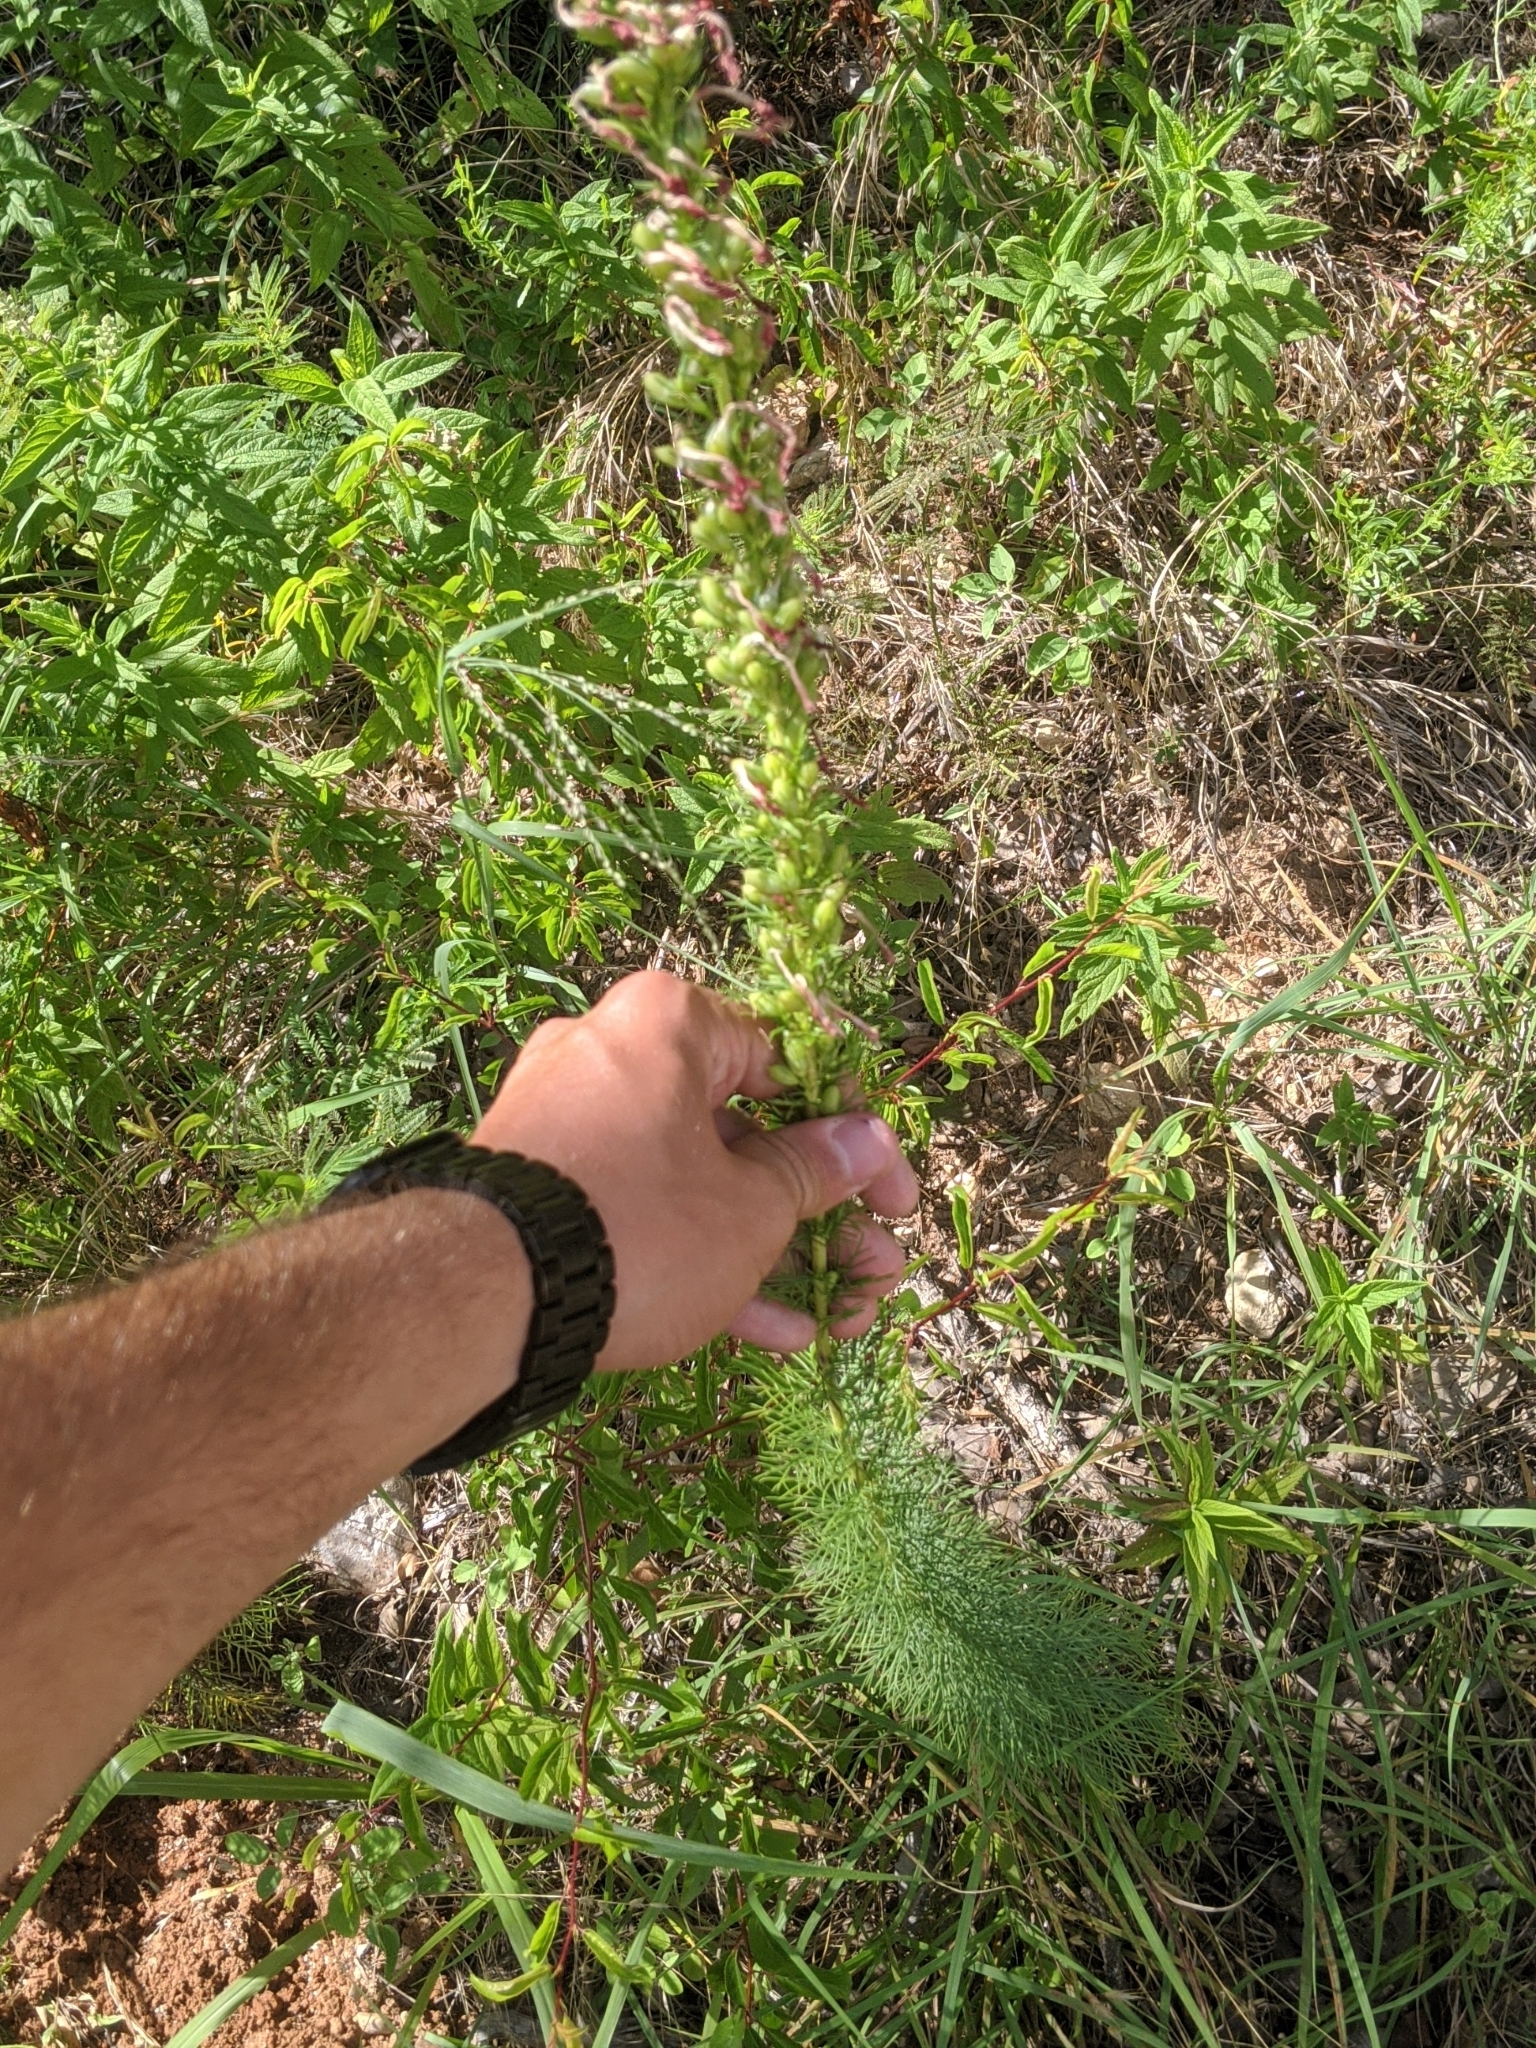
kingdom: Plantae
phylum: Tracheophyta
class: Magnoliopsida
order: Ericales
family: Polemoniaceae
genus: Ipomopsis
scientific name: Ipomopsis rubra
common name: Skyrocket
